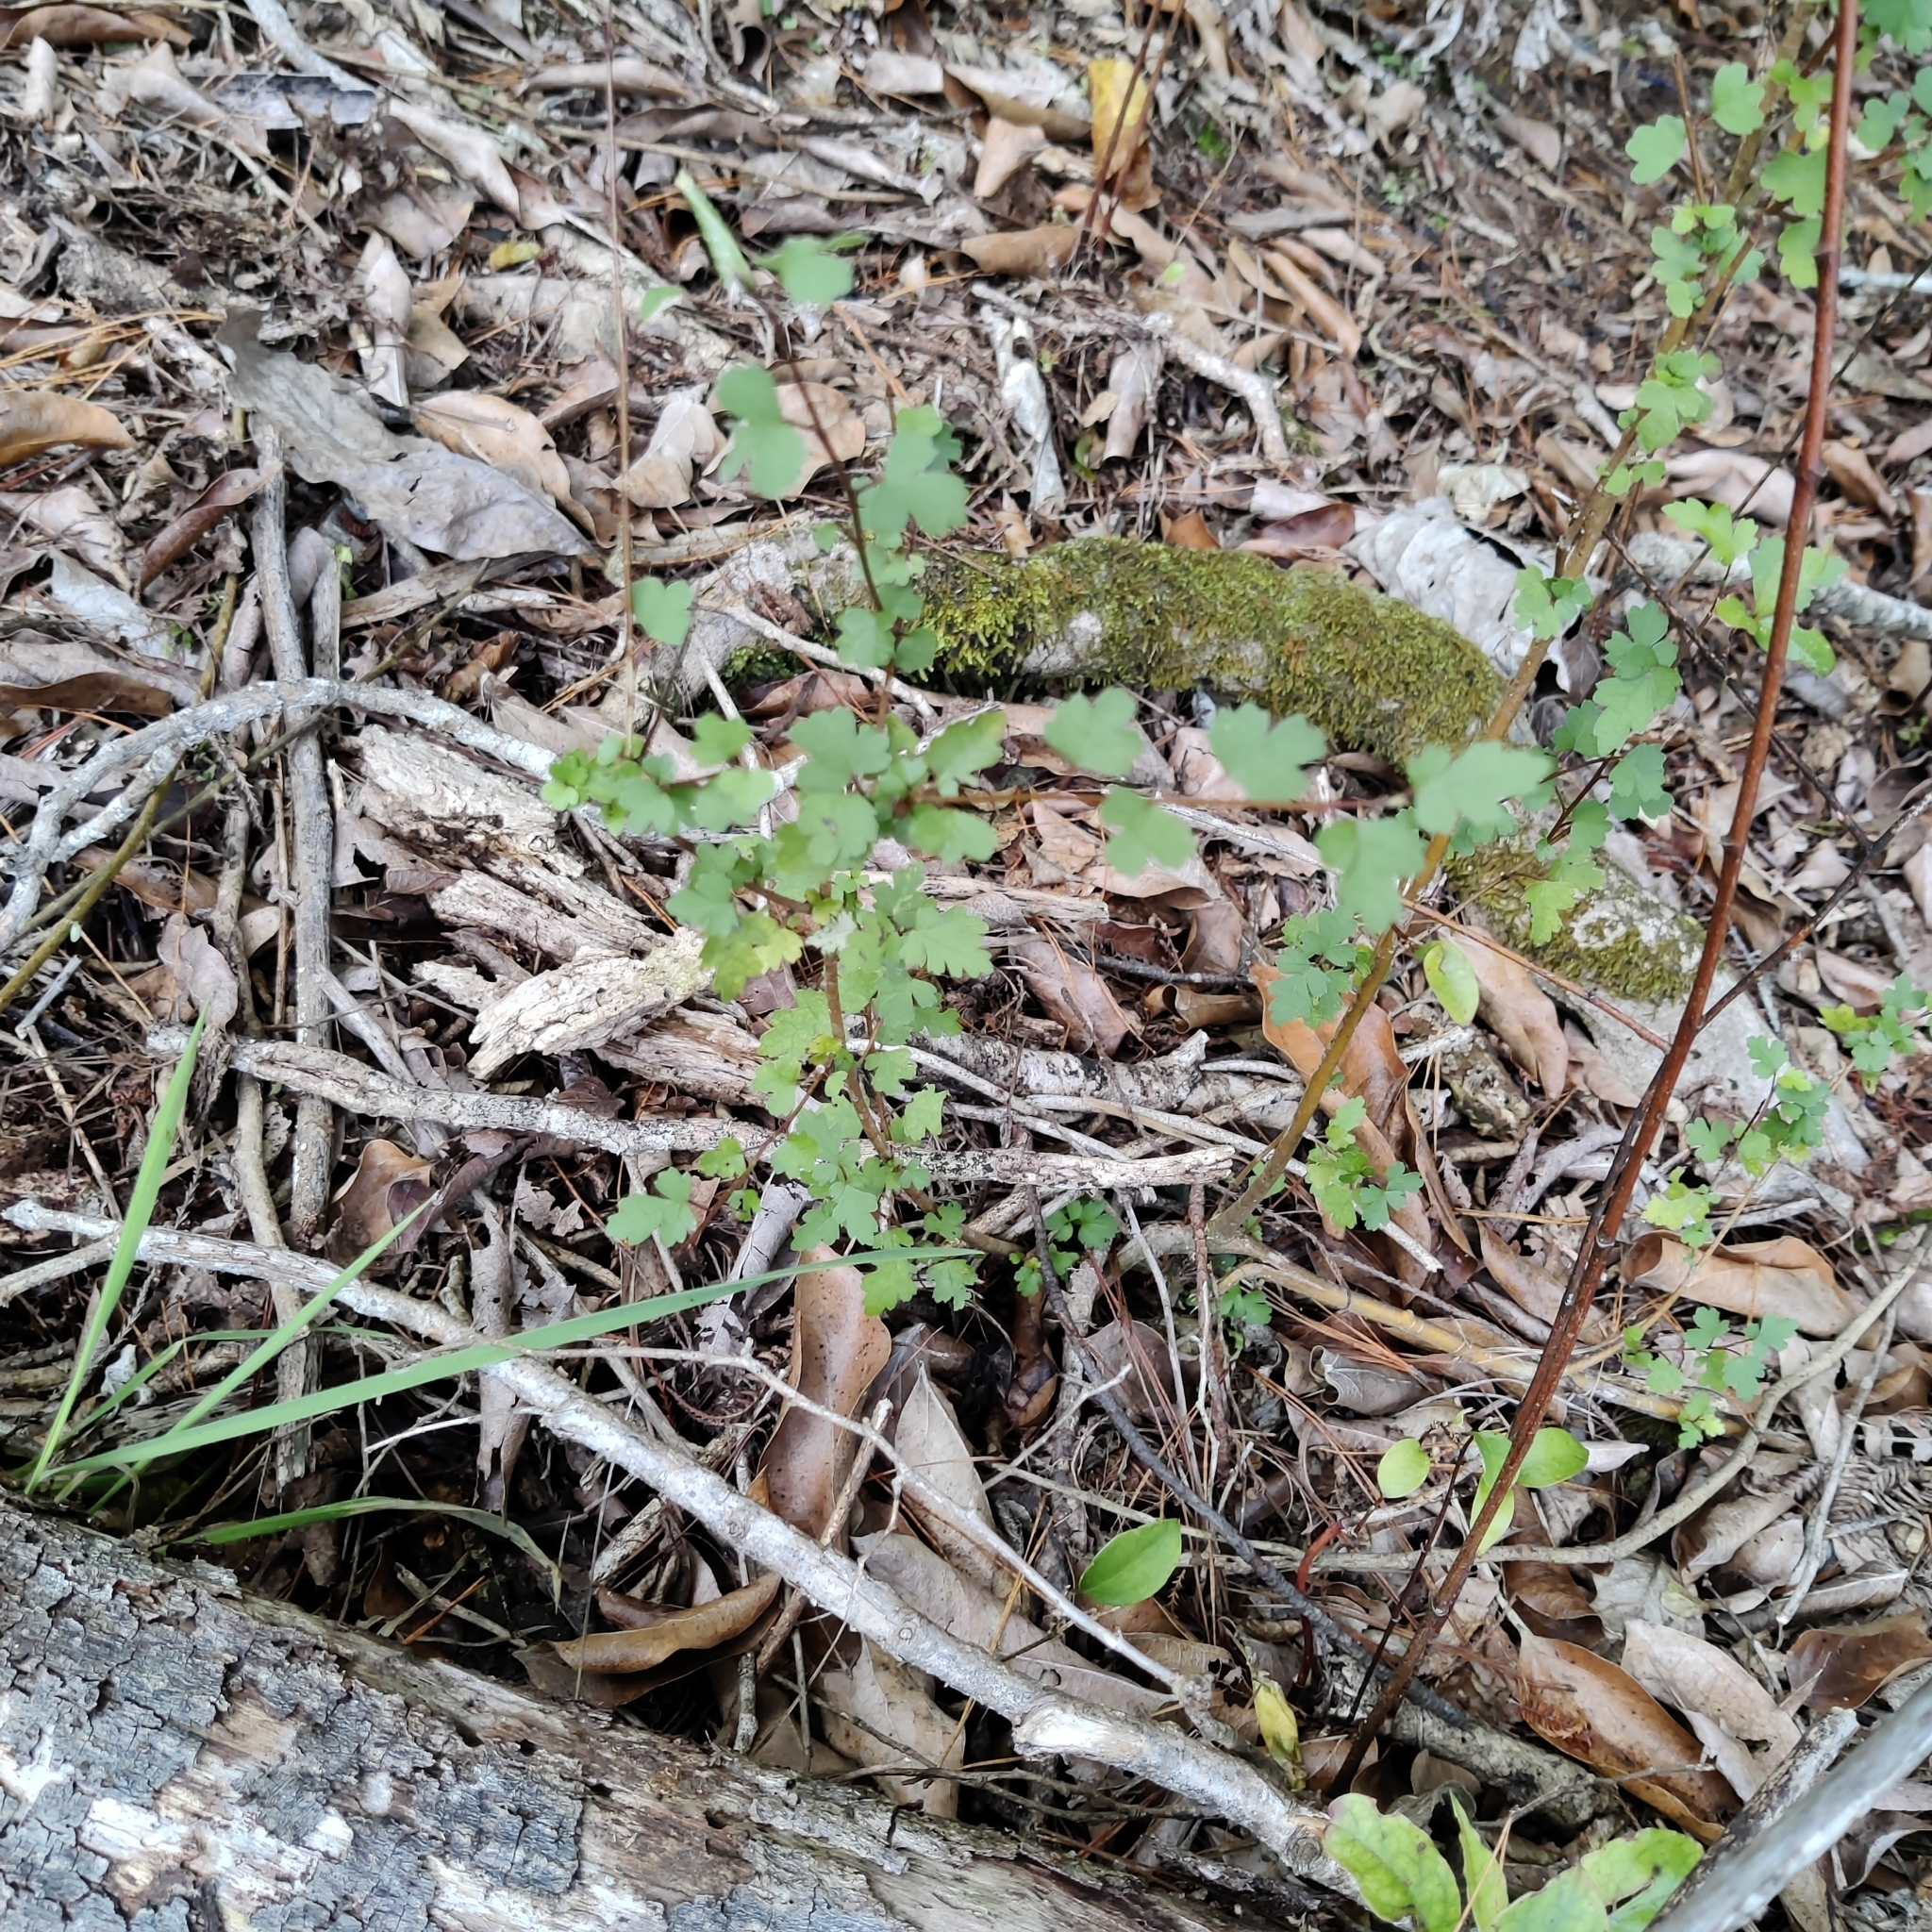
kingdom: Plantae
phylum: Tracheophyta
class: Magnoliopsida
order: Malvales
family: Malvaceae
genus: Plagianthus
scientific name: Plagianthus regius
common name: Manatu
